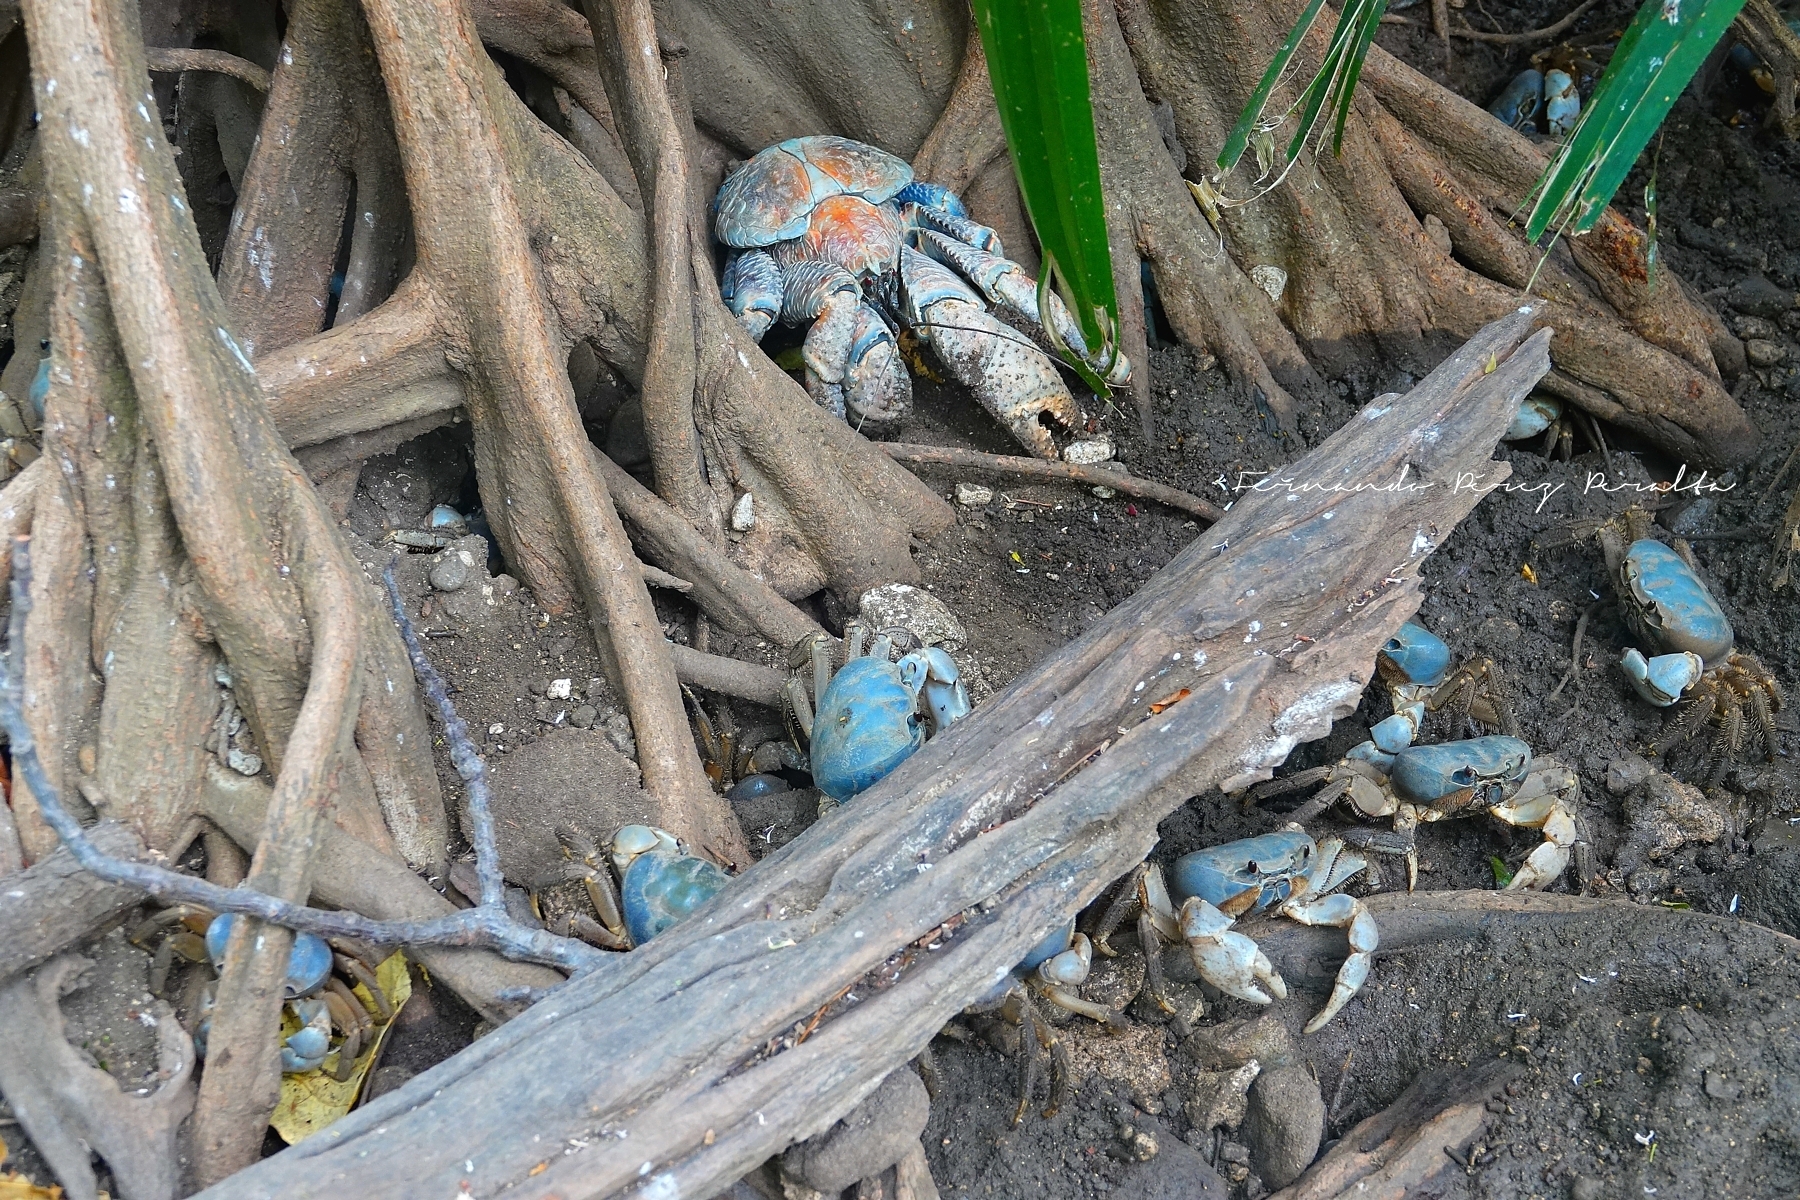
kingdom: Animalia
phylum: Arthropoda
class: Malacostraca
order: Decapoda
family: Coenobitidae
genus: Birgus
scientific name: Birgus latro
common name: Coconut crab
